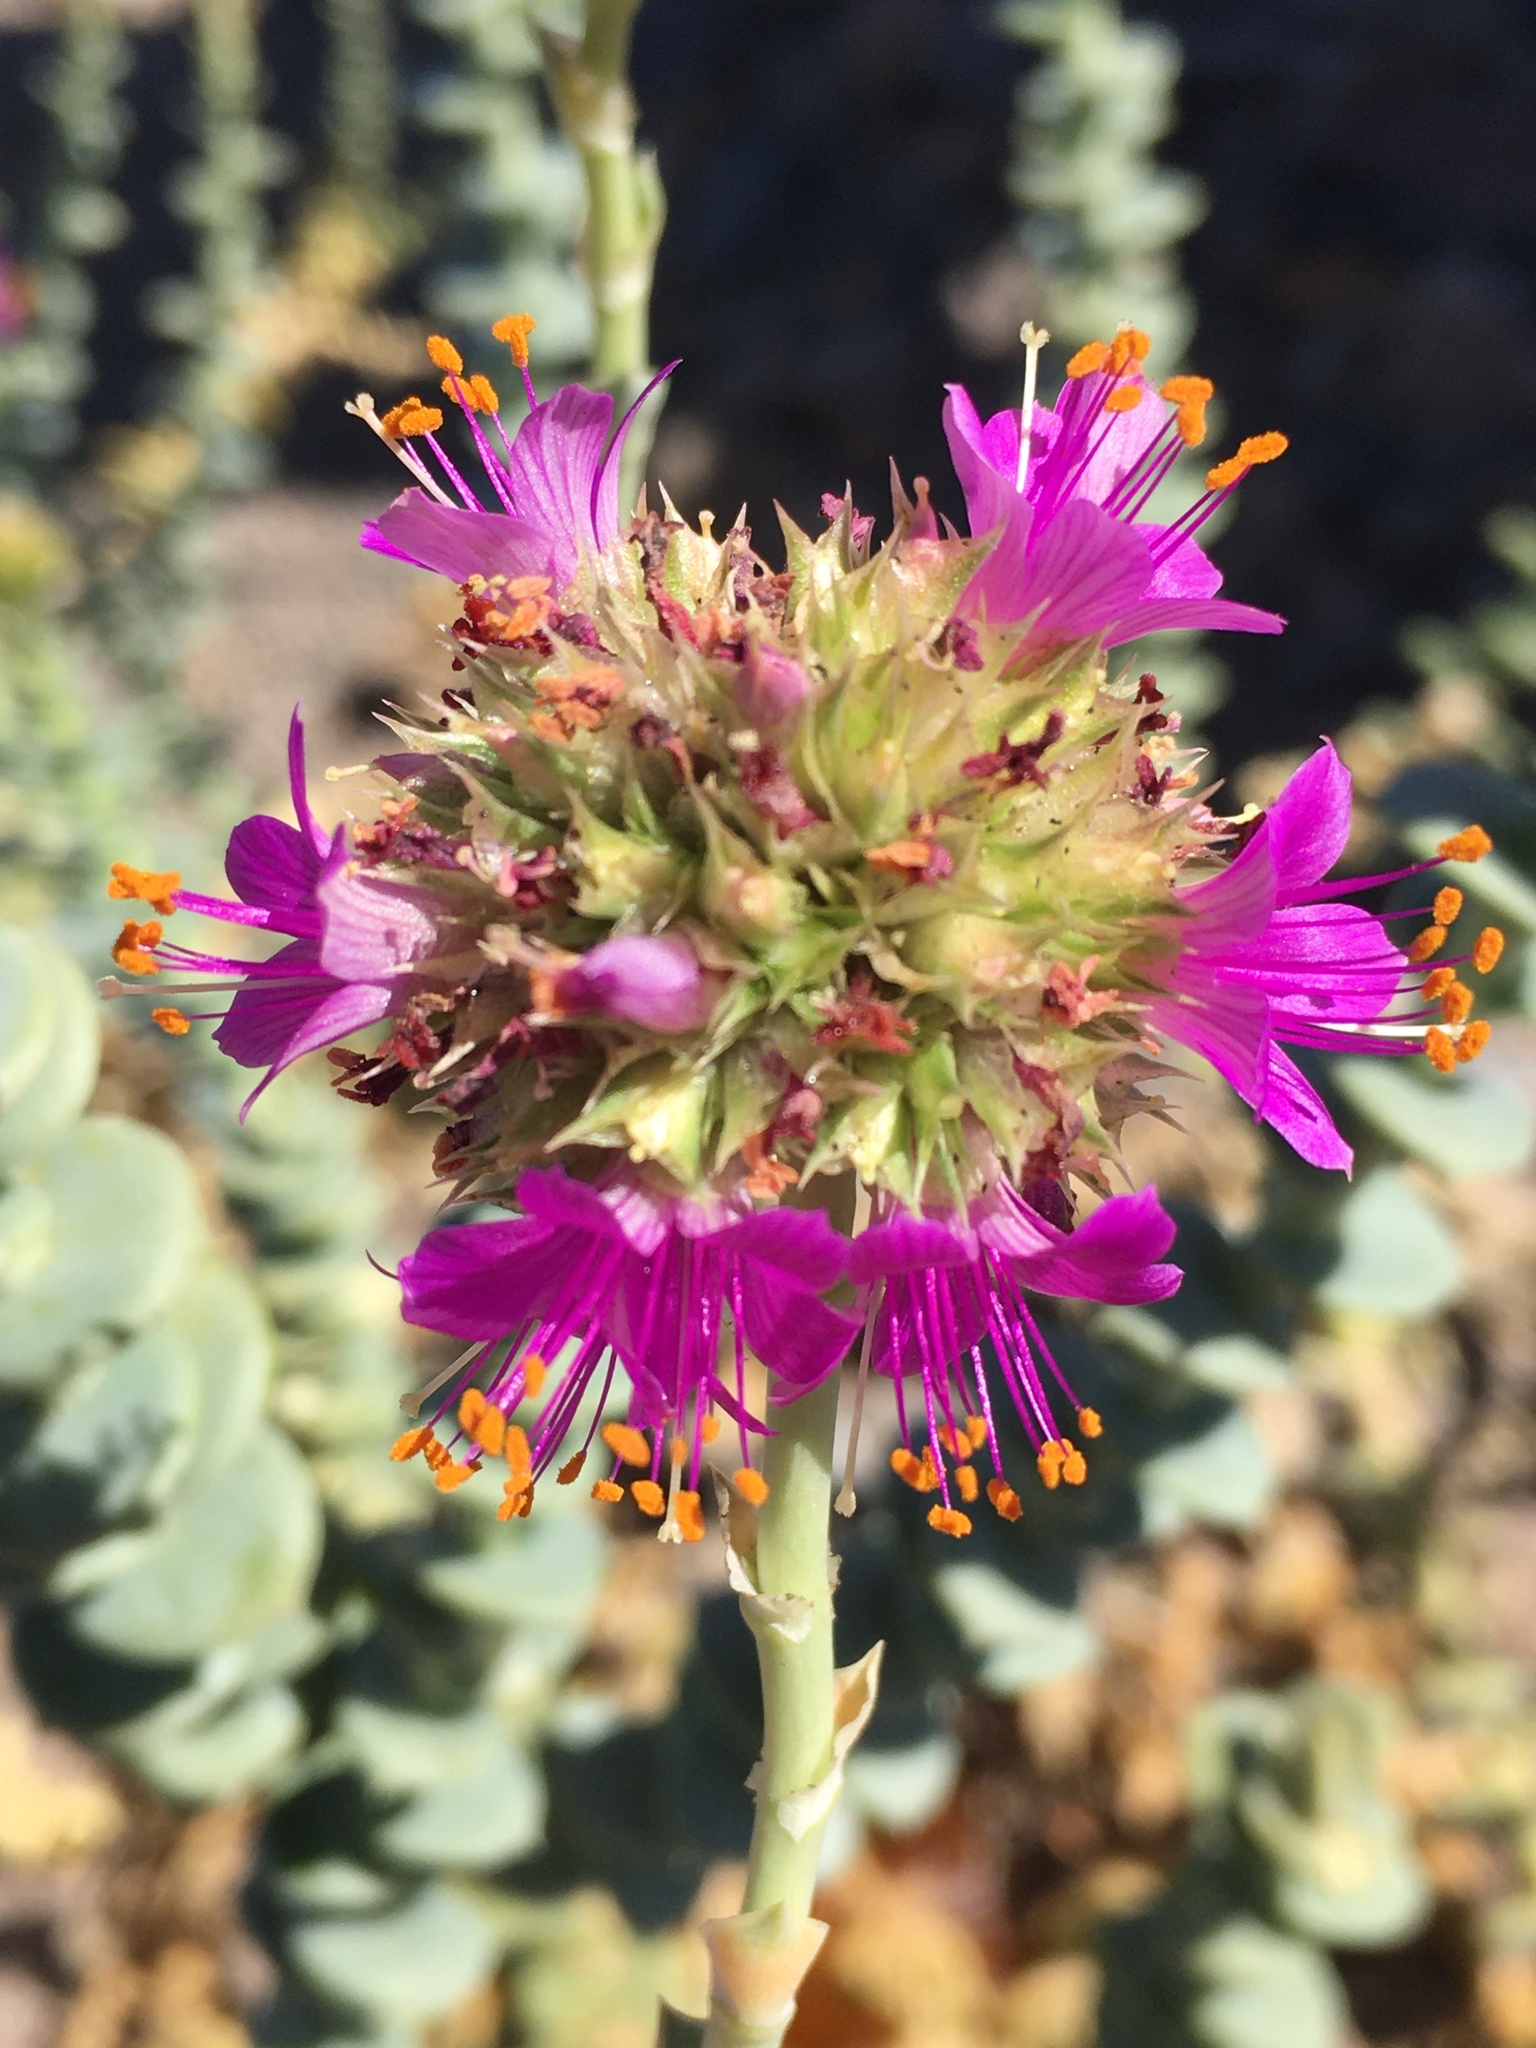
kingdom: Plantae
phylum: Tracheophyta
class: Magnoliopsida
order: Caryophyllales
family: Montiaceae
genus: Philippiamra
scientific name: Philippiamra celosioides
